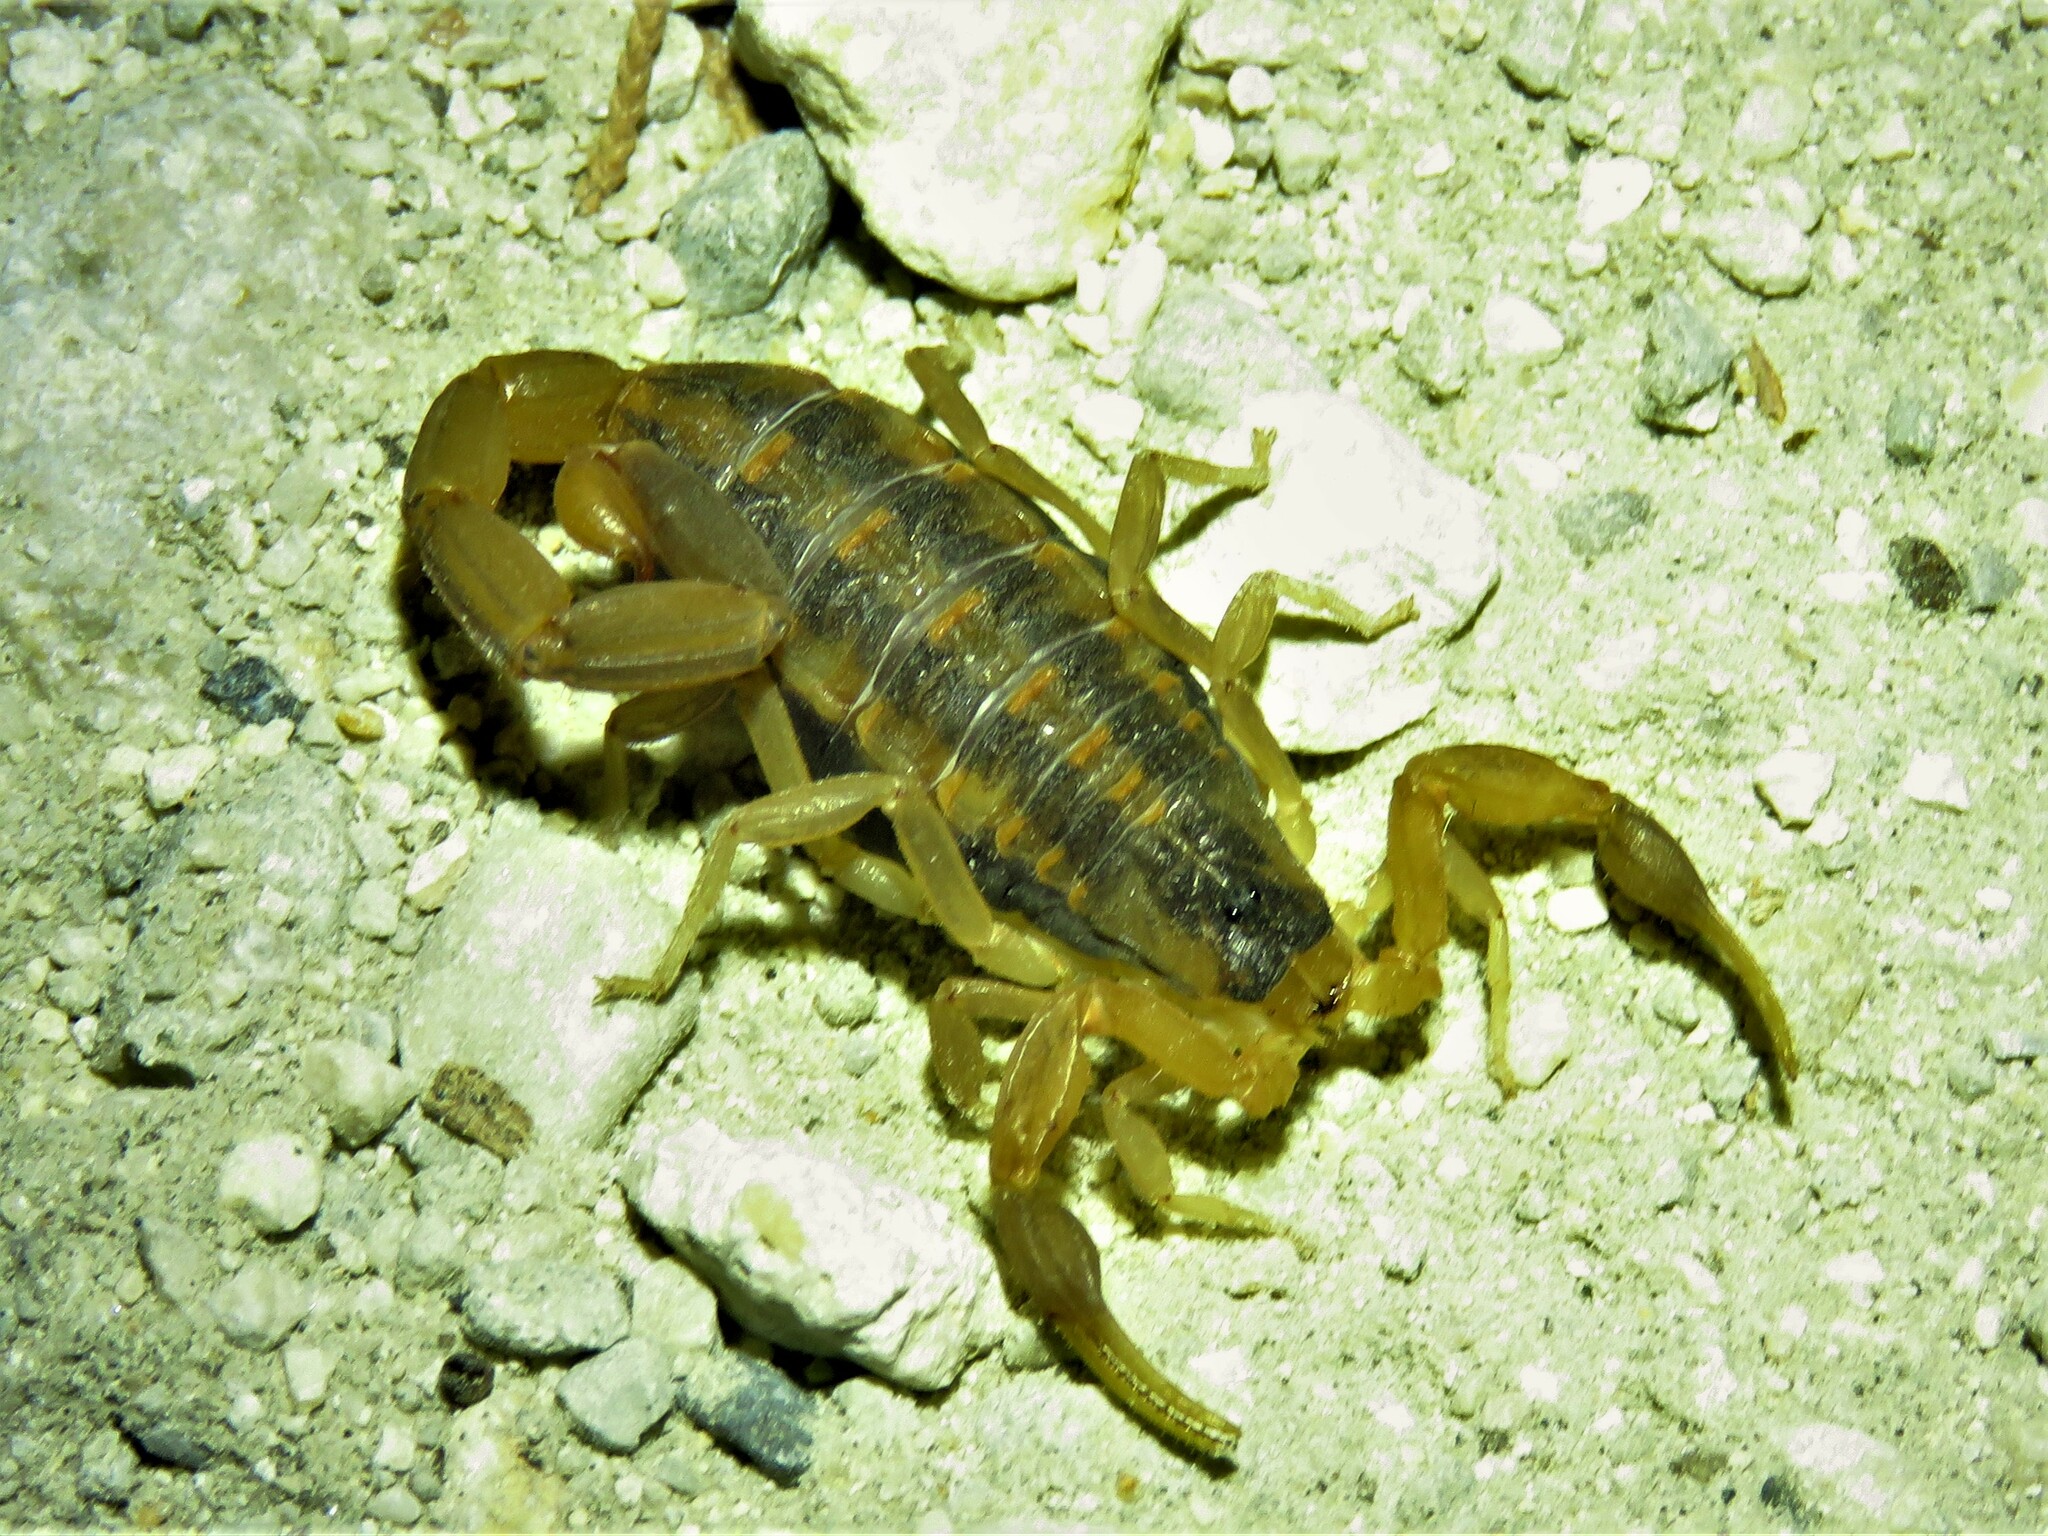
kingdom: Animalia
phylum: Arthropoda
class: Arachnida
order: Scorpiones
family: Buthidae
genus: Centruroides
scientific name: Centruroides vittatus
